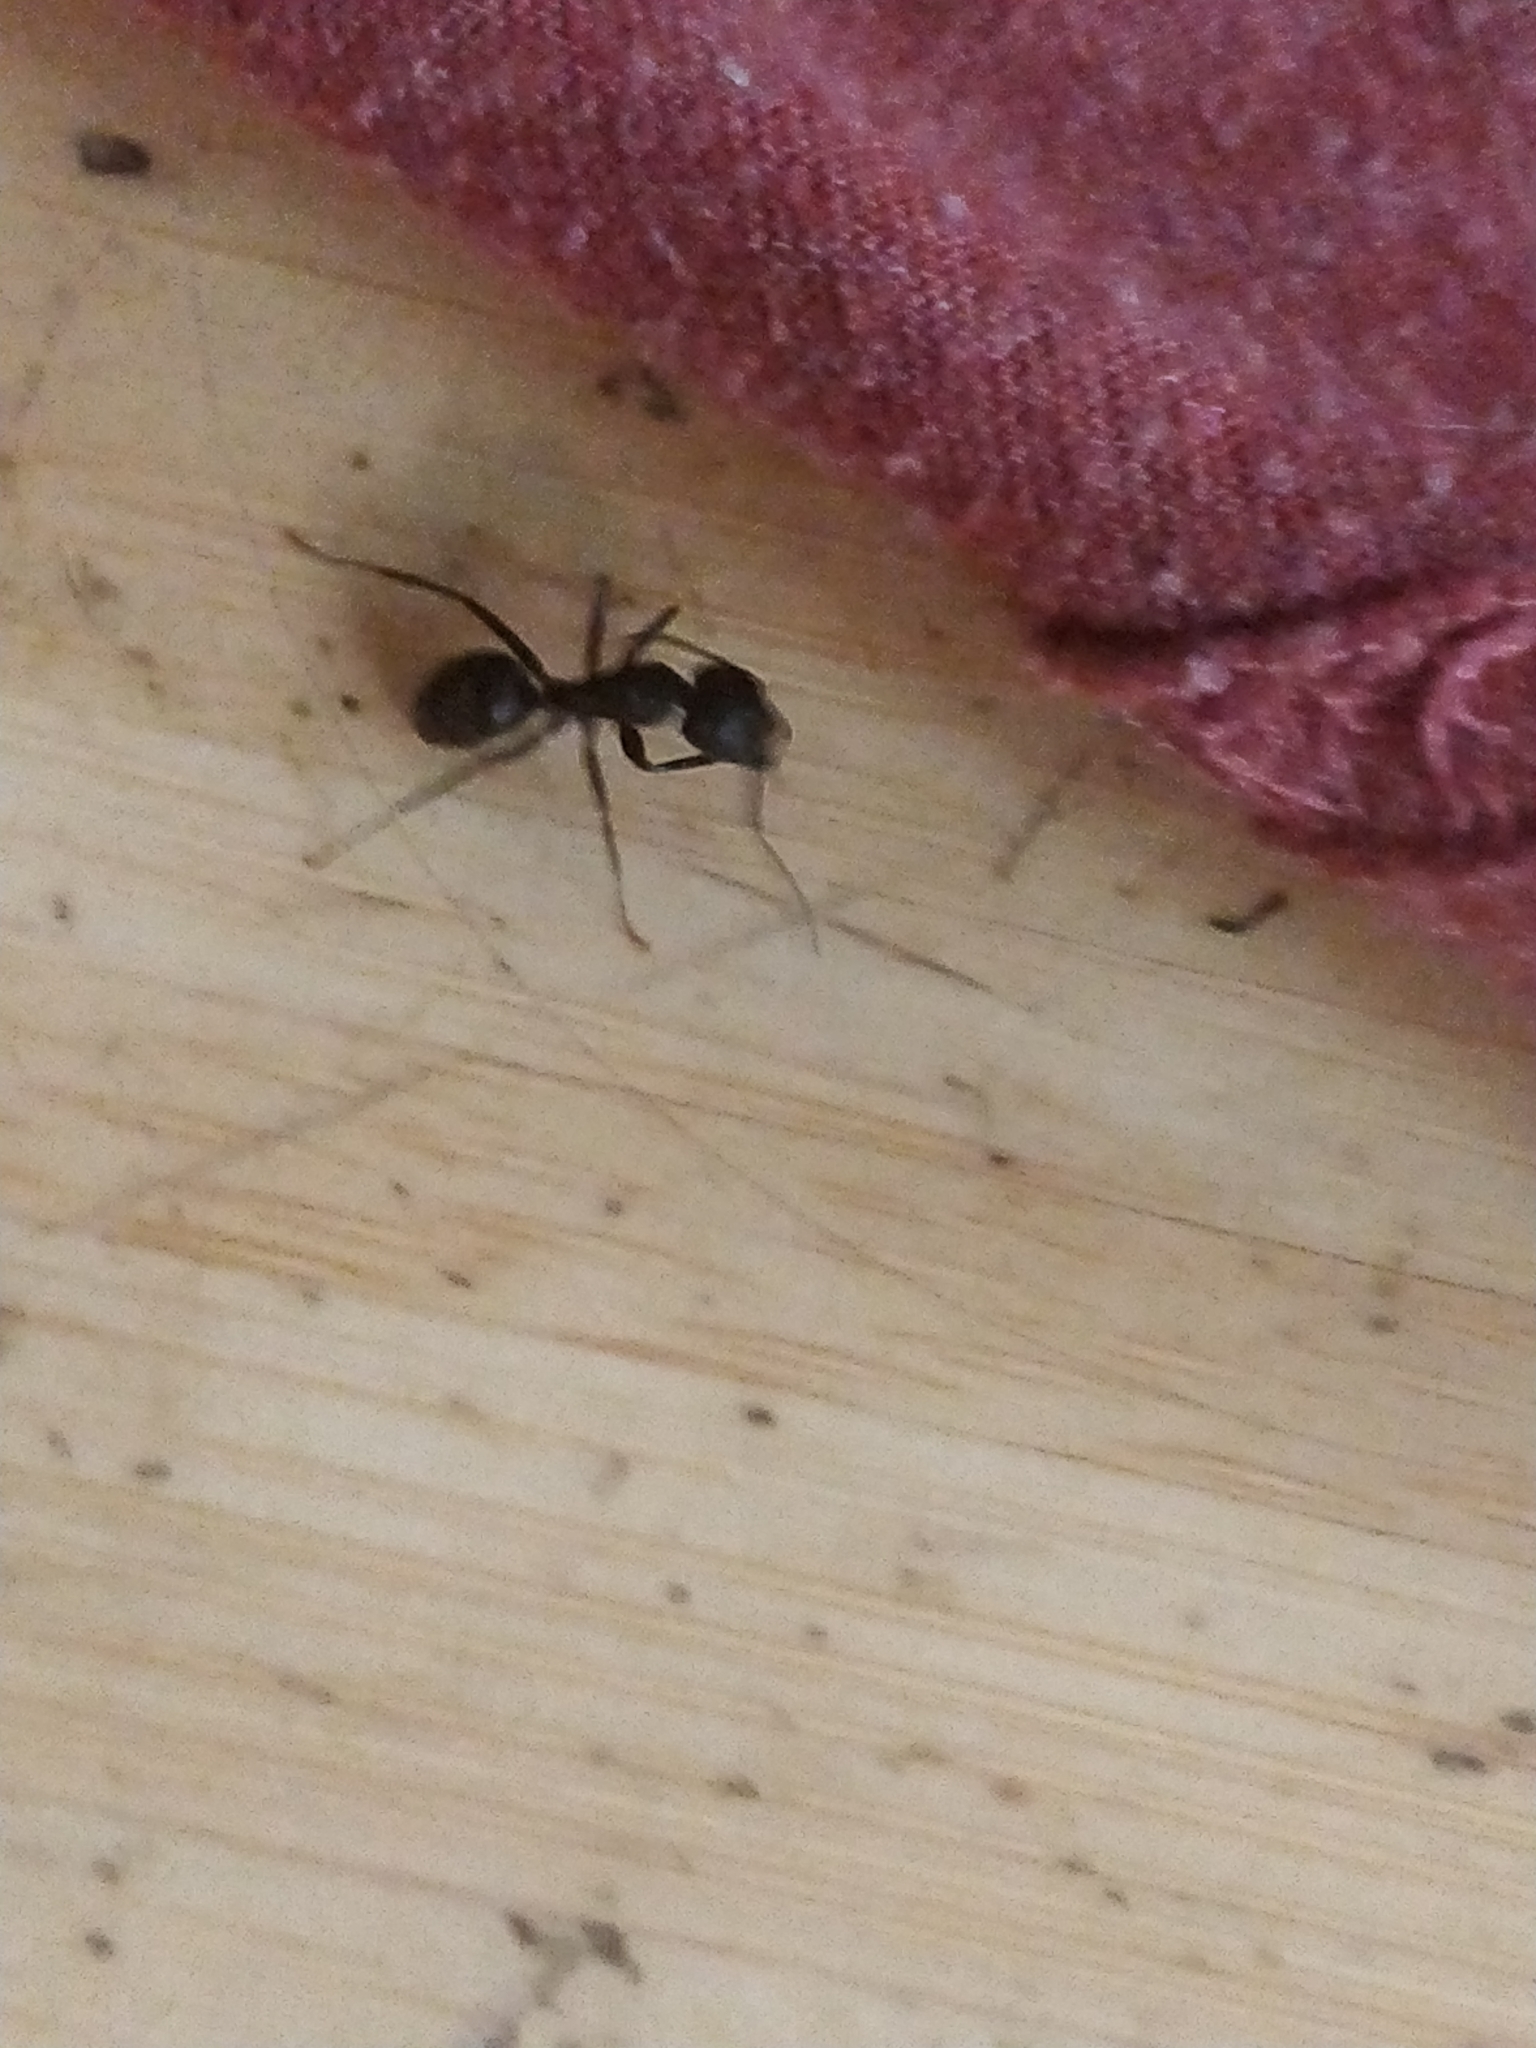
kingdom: Animalia
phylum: Arthropoda
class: Insecta
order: Hymenoptera
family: Formicidae
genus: Camponotus
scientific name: Camponotus pennsylvanicus
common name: Black carpenter ant
